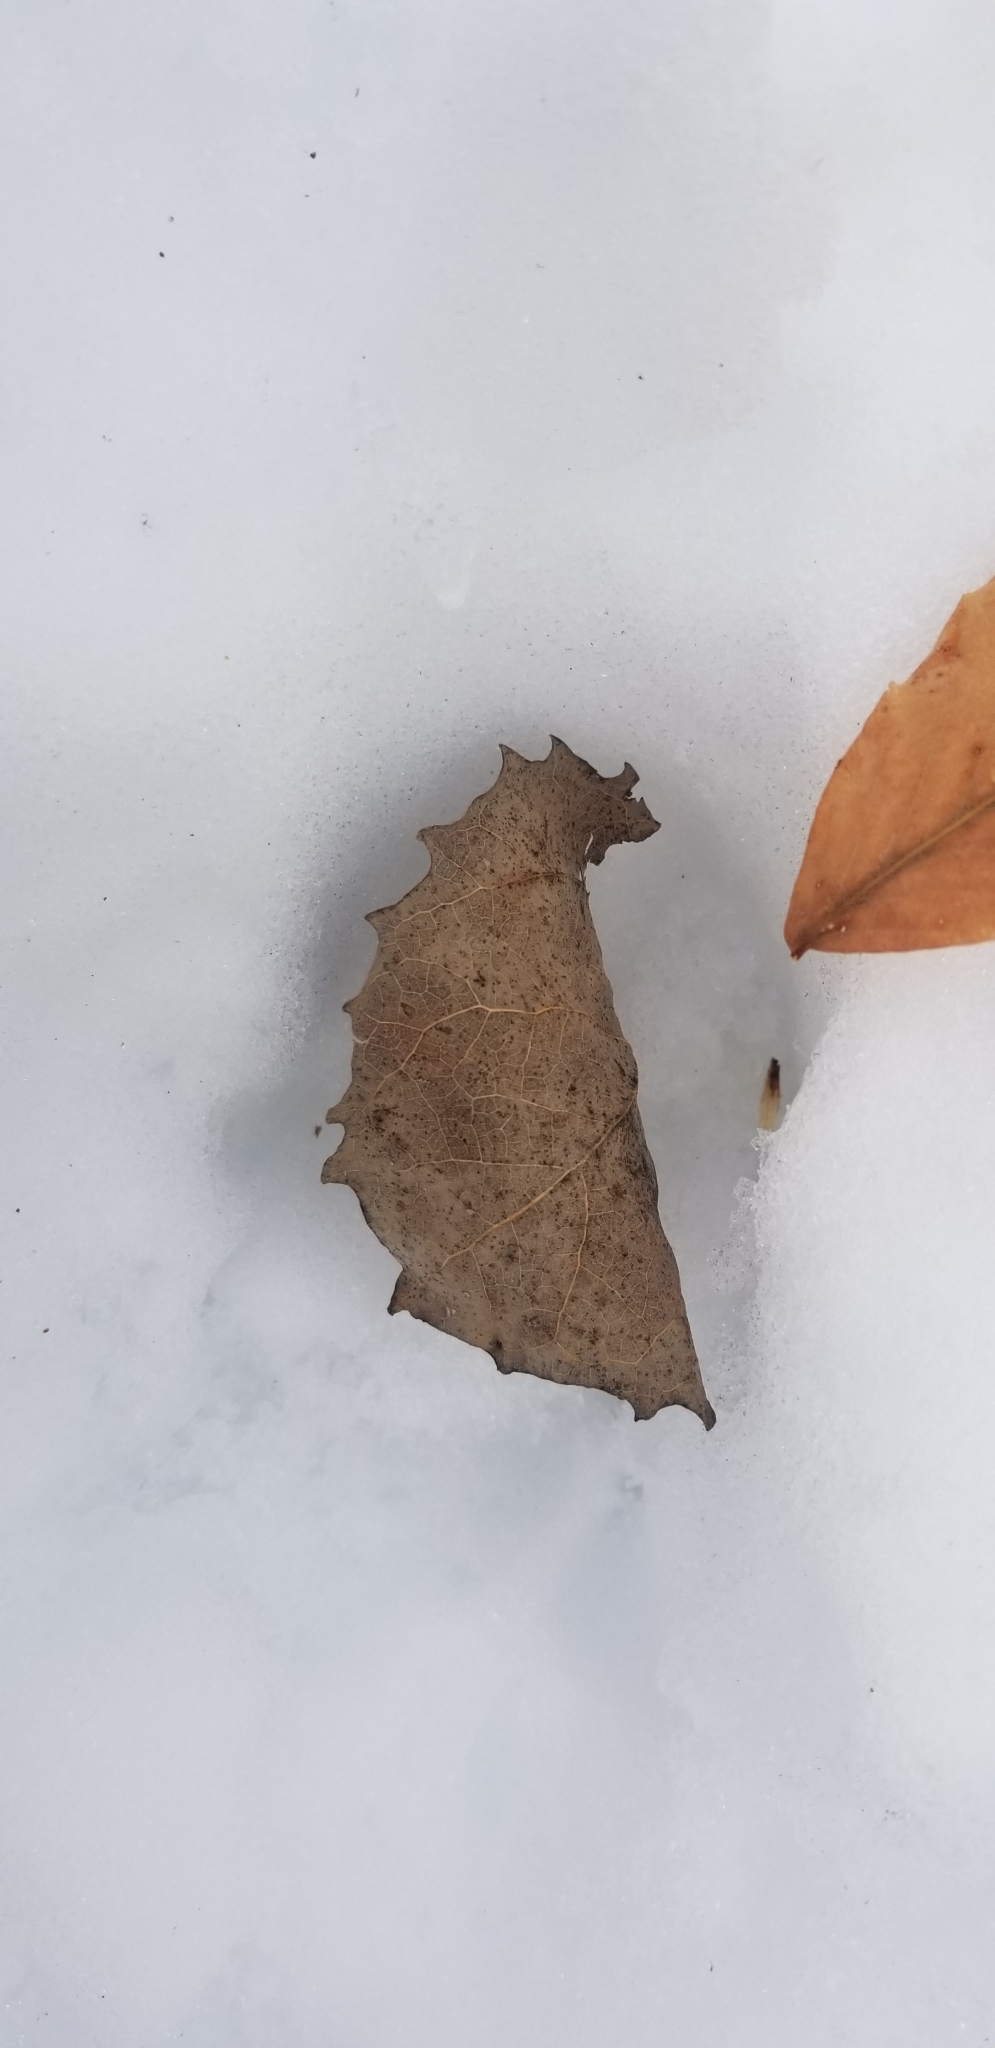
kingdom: Plantae
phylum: Tracheophyta
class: Magnoliopsida
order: Malpighiales
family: Salicaceae
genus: Populus
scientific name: Populus grandidentata
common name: Bigtooth aspen
